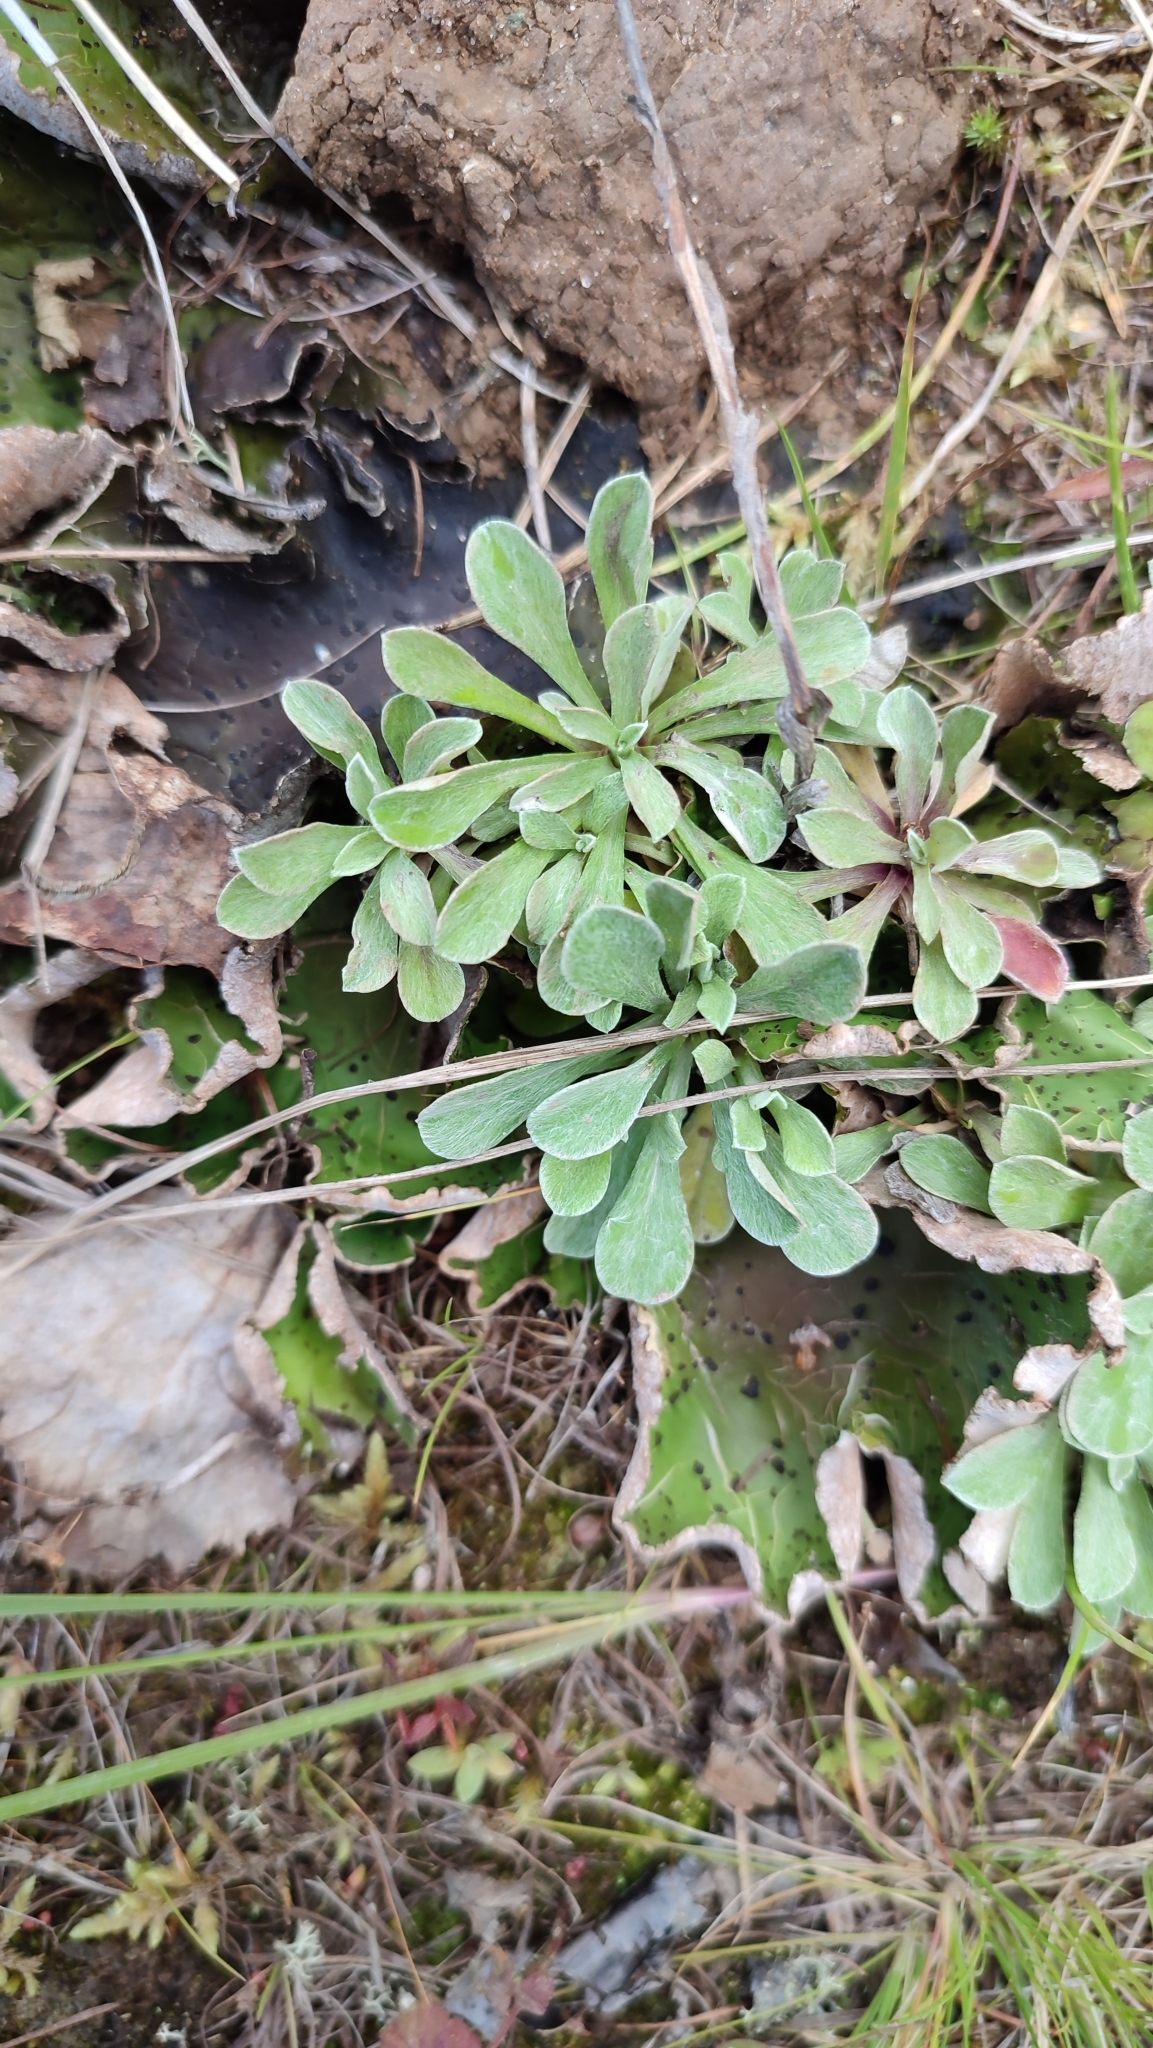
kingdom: Plantae
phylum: Tracheophyta
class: Magnoliopsida
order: Asterales
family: Asteraceae
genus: Antennaria
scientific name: Antennaria dioica
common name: Mountain everlasting
